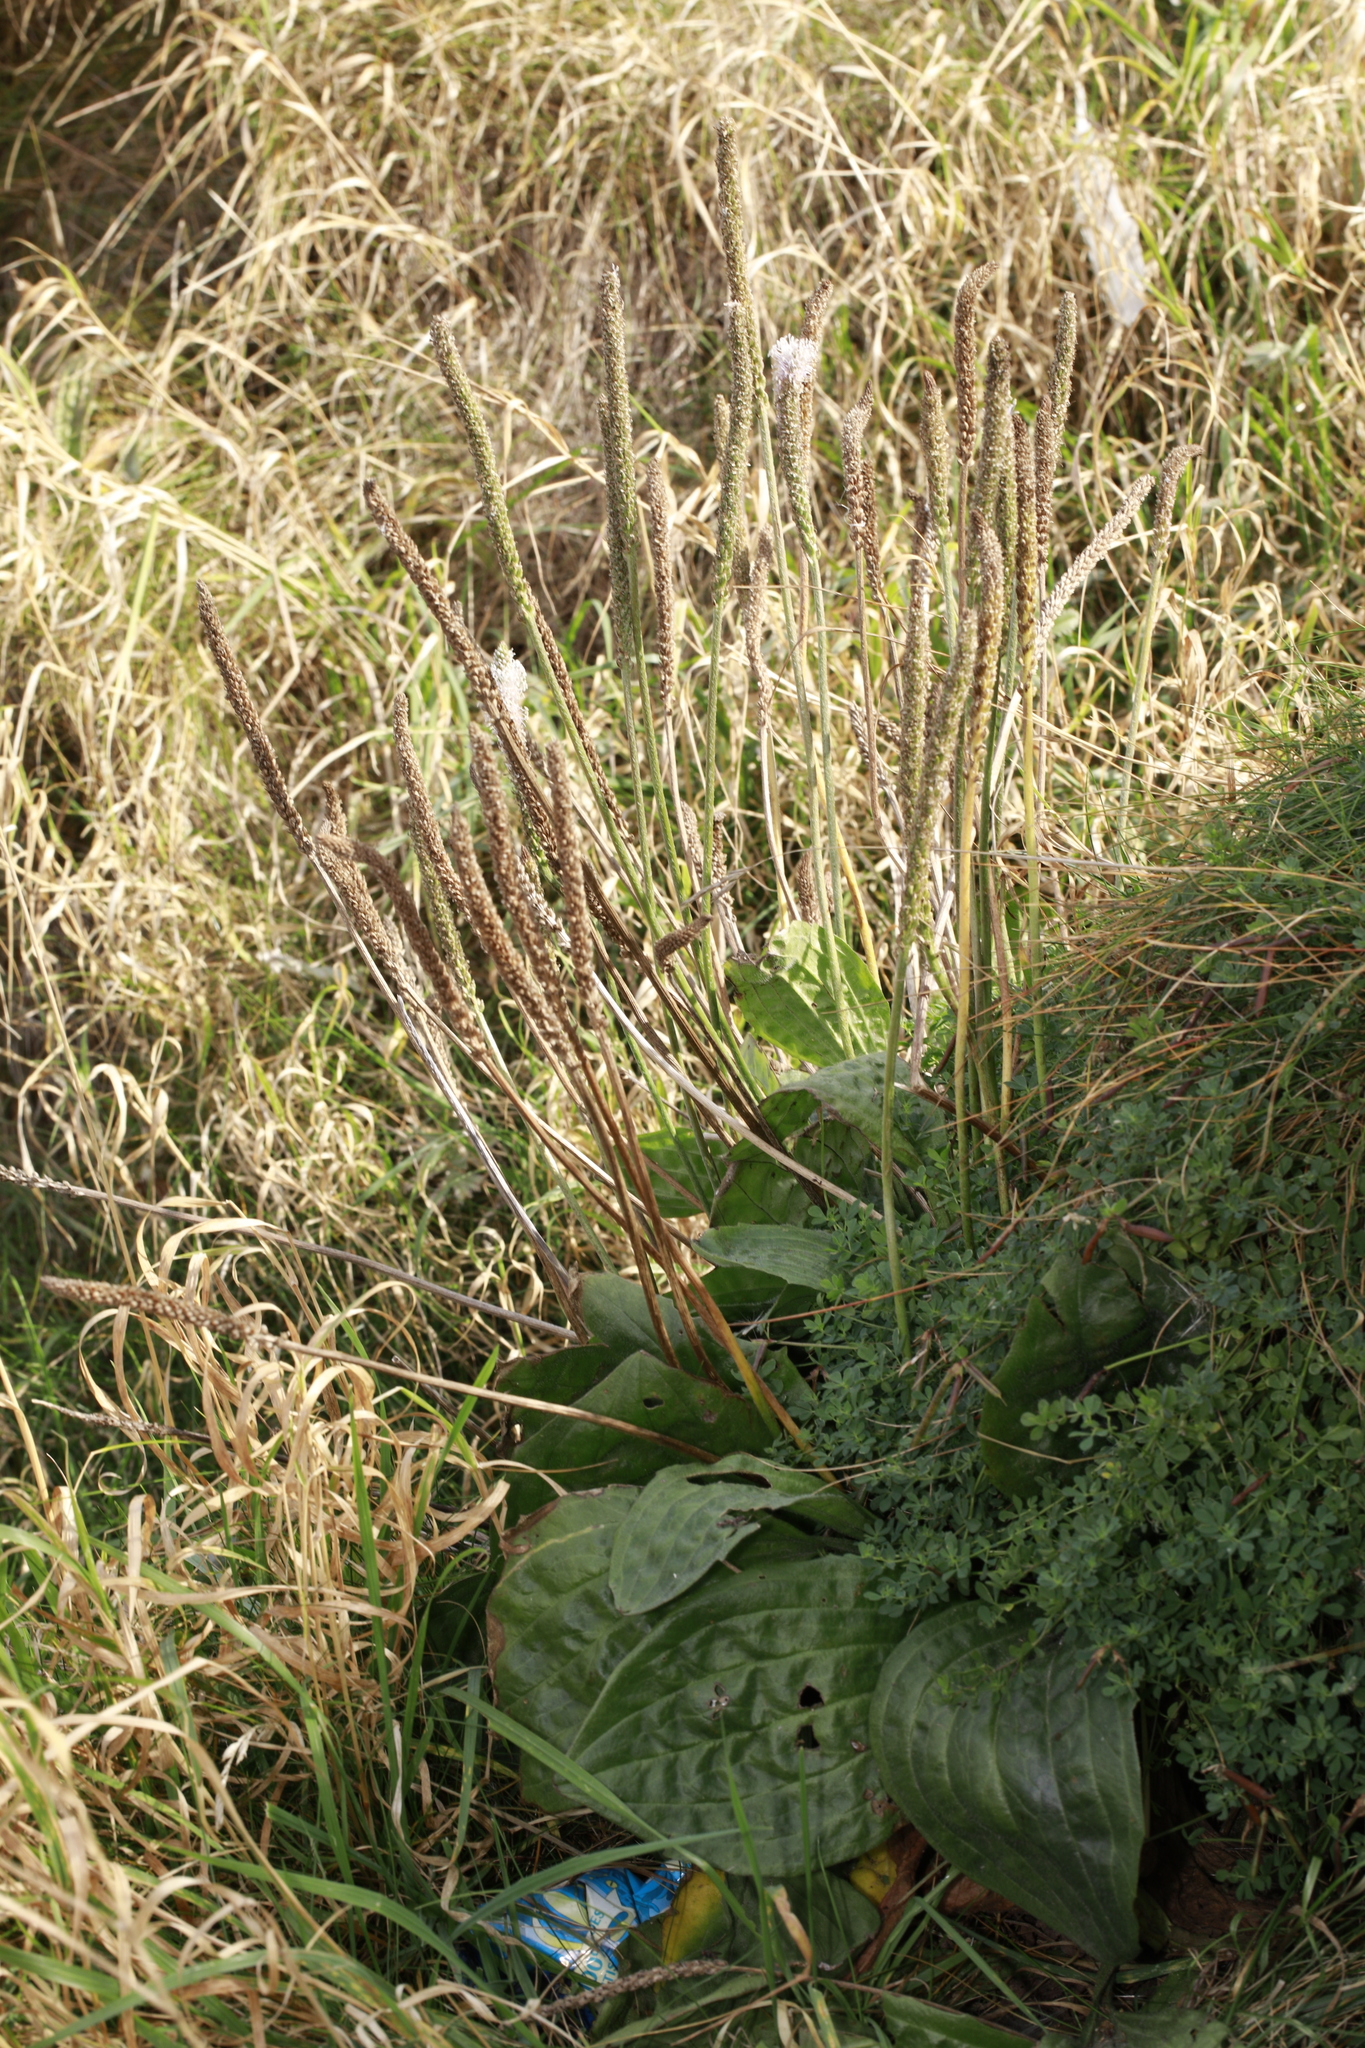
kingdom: Plantae
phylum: Tracheophyta
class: Magnoliopsida
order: Lamiales
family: Plantaginaceae
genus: Plantago
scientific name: Plantago major
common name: Common plantain
